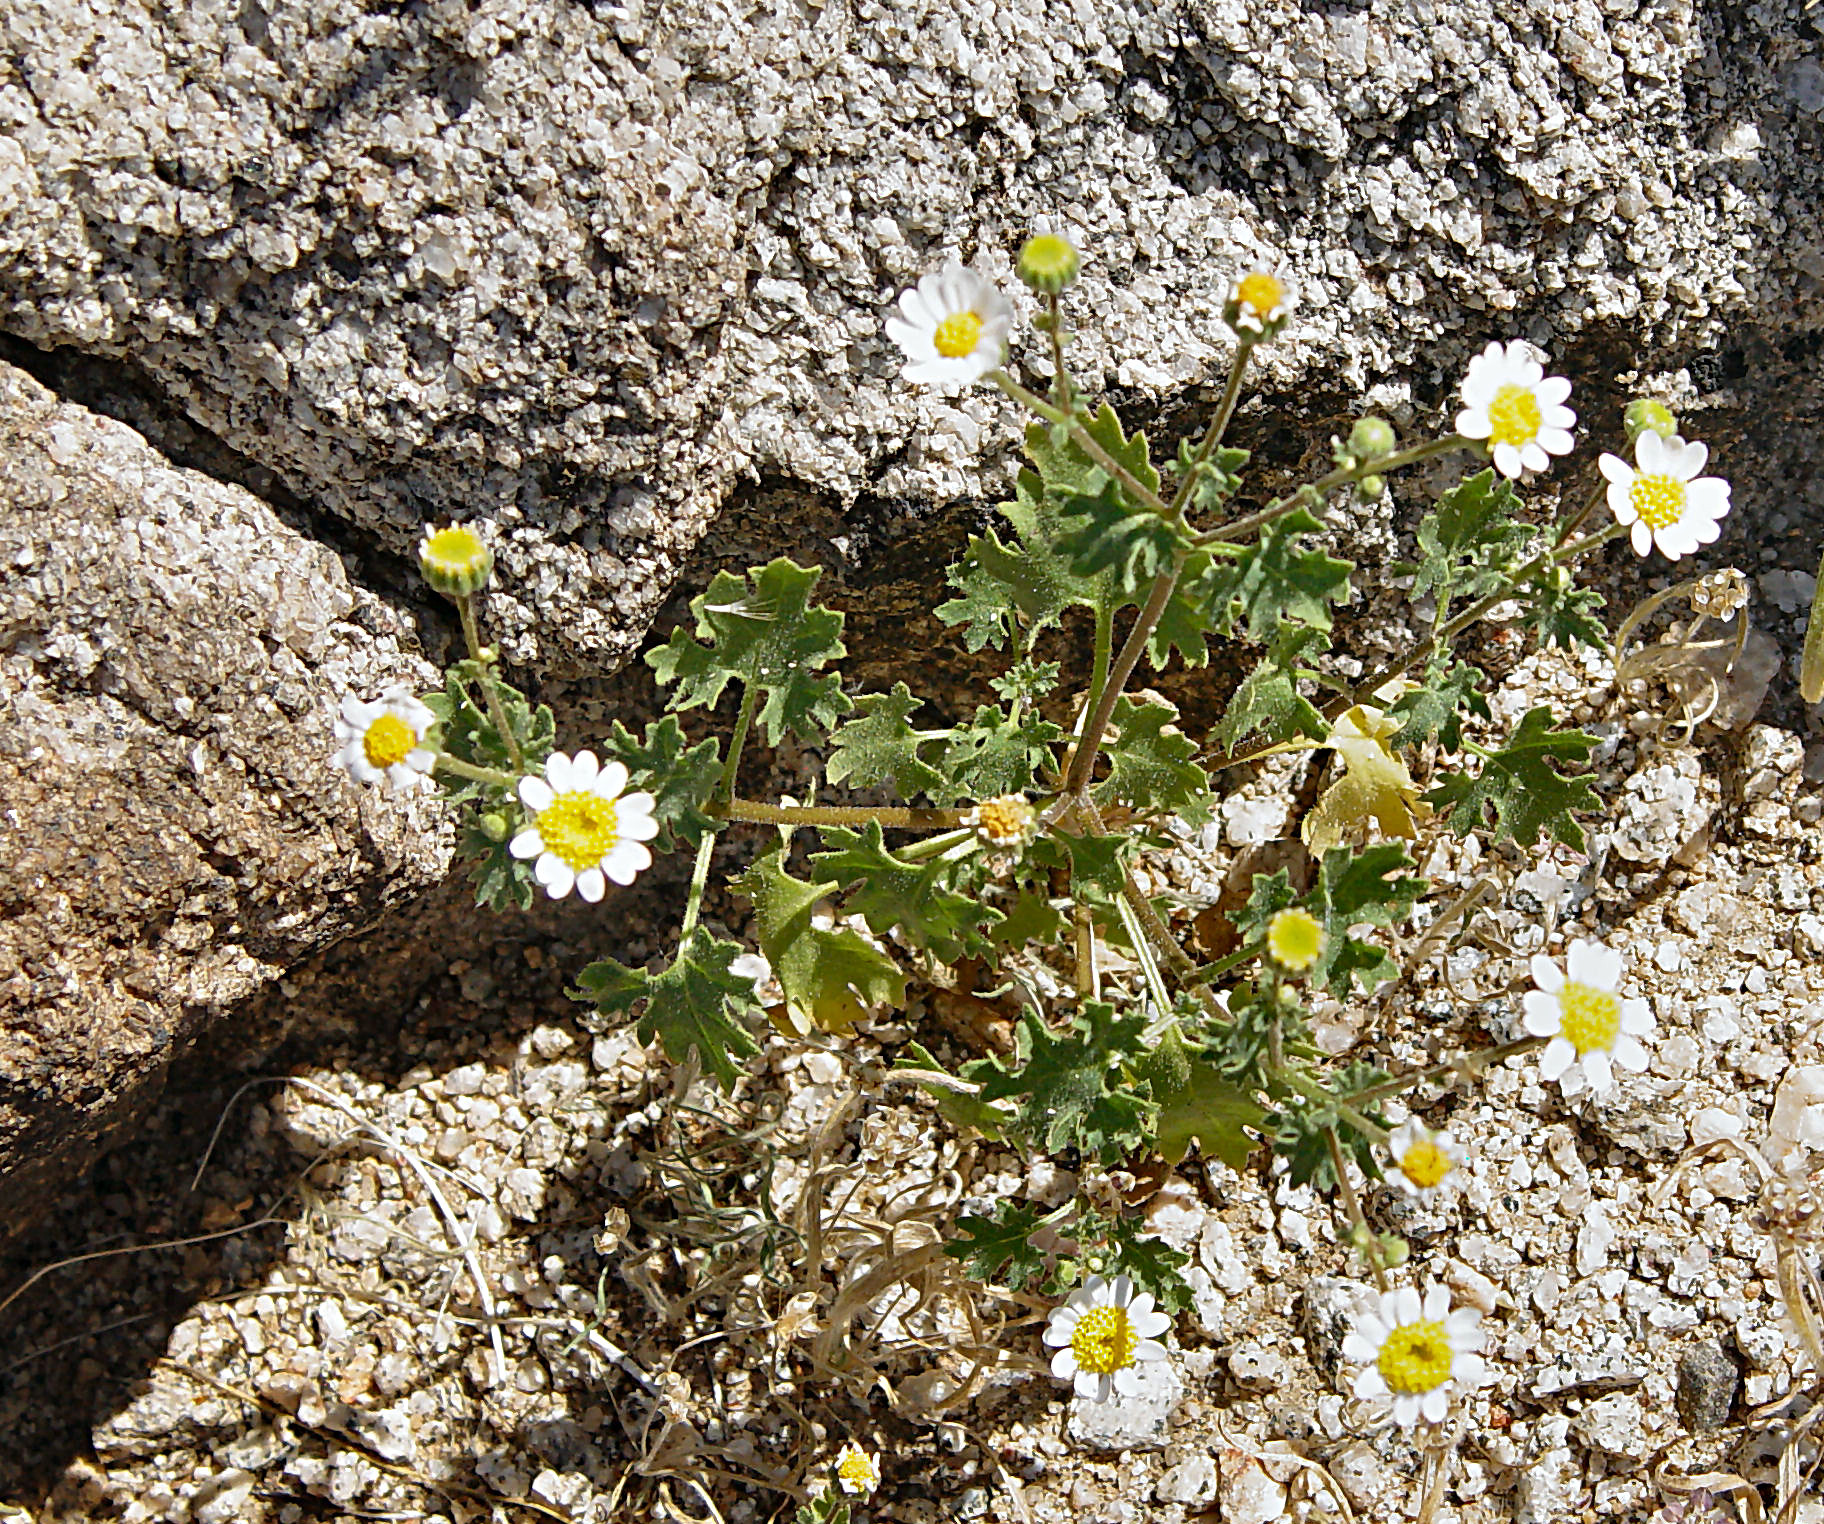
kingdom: Plantae
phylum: Tracheophyta
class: Magnoliopsida
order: Asterales
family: Asteraceae
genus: Laphamia
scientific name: Laphamia emoryi
